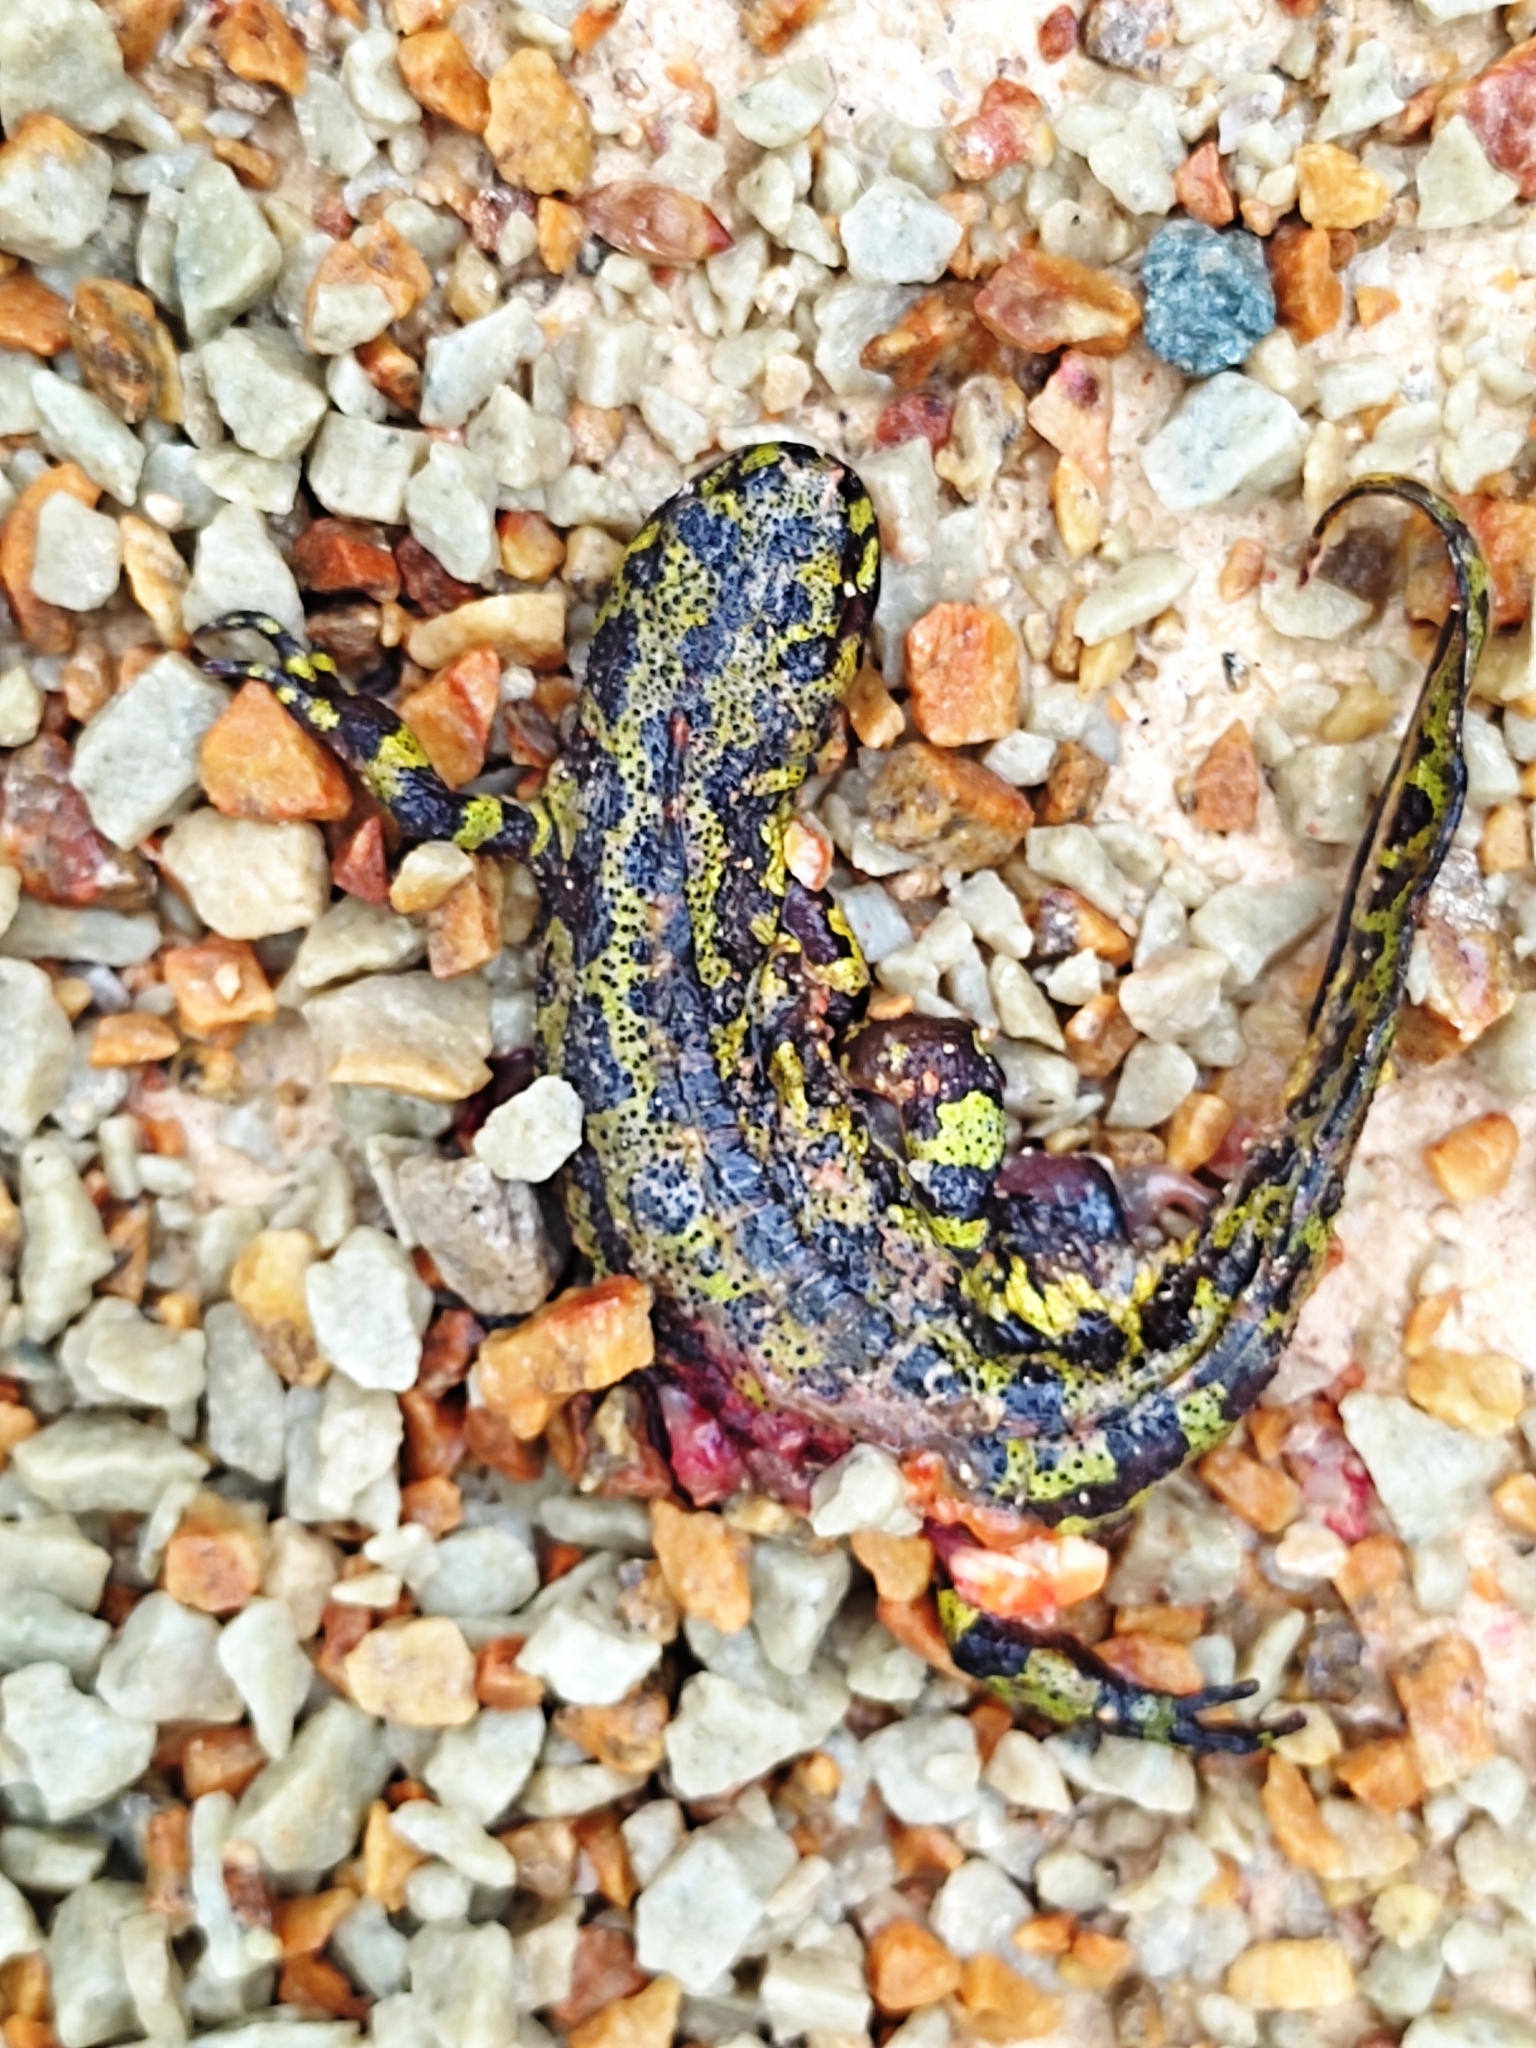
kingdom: Animalia
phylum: Chordata
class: Amphibia
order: Caudata
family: Salamandridae
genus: Triturus
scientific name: Triturus marmoratus
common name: Marbled newt
